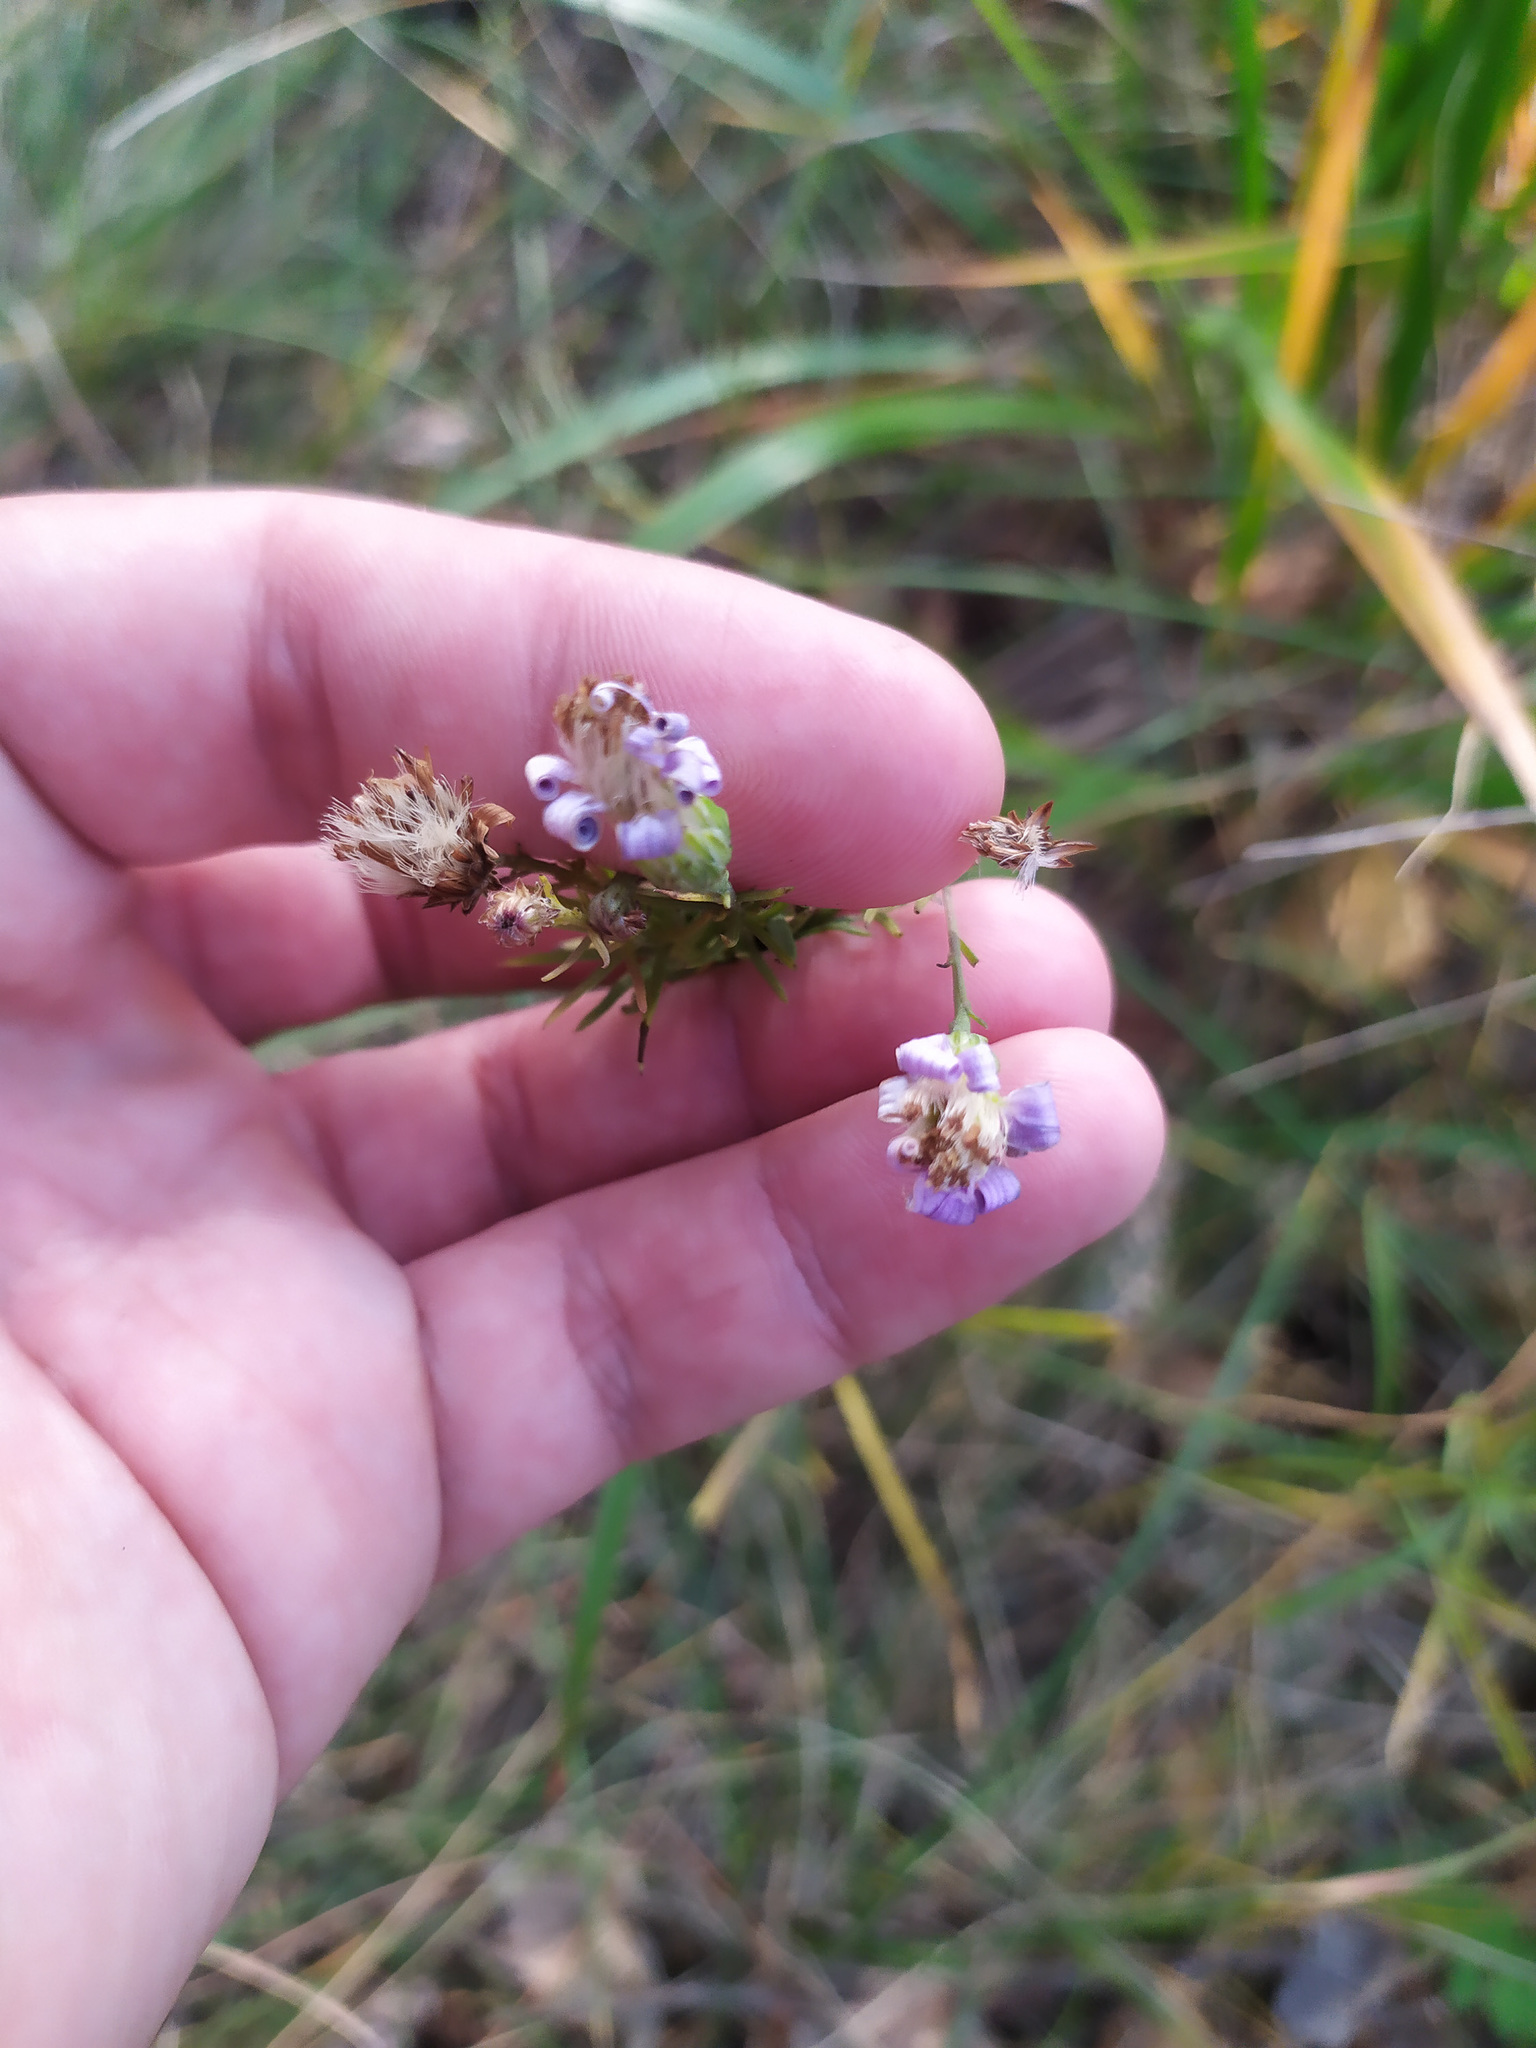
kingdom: Plantae
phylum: Tracheophyta
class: Magnoliopsida
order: Asterales
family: Asteraceae
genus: Galatella
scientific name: Galatella angustissima
